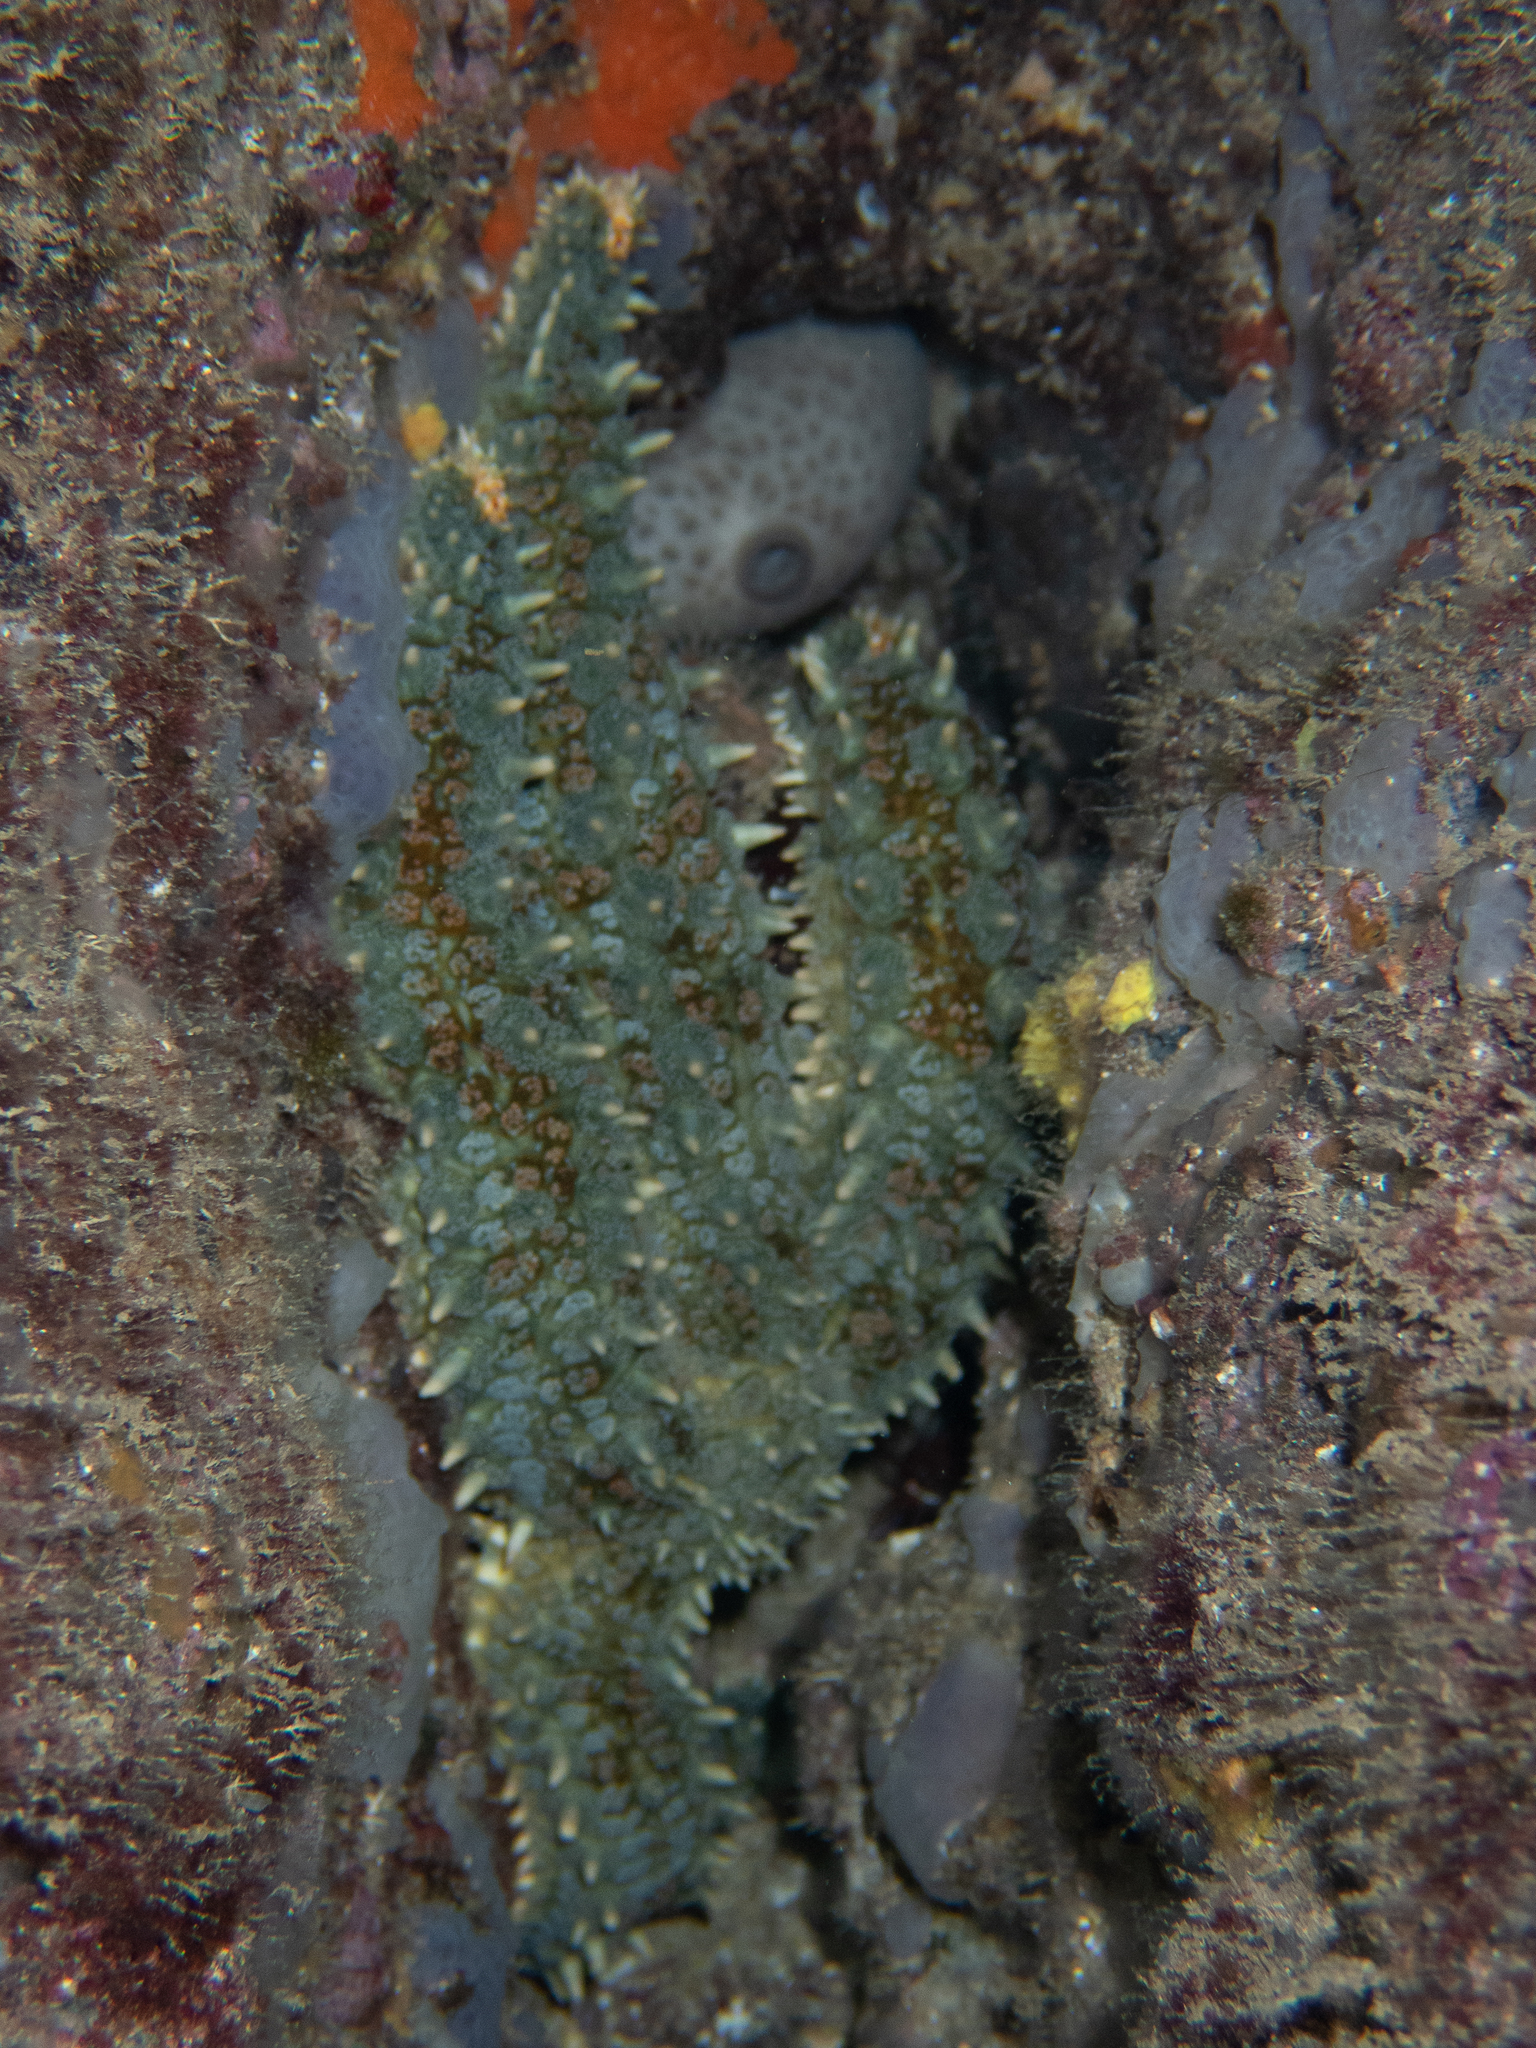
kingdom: Animalia
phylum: Echinodermata
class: Asteroidea
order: Forcipulatida
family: Asteriidae
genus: Marthasterias
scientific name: Marthasterias glacialis
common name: Spiny starfish
